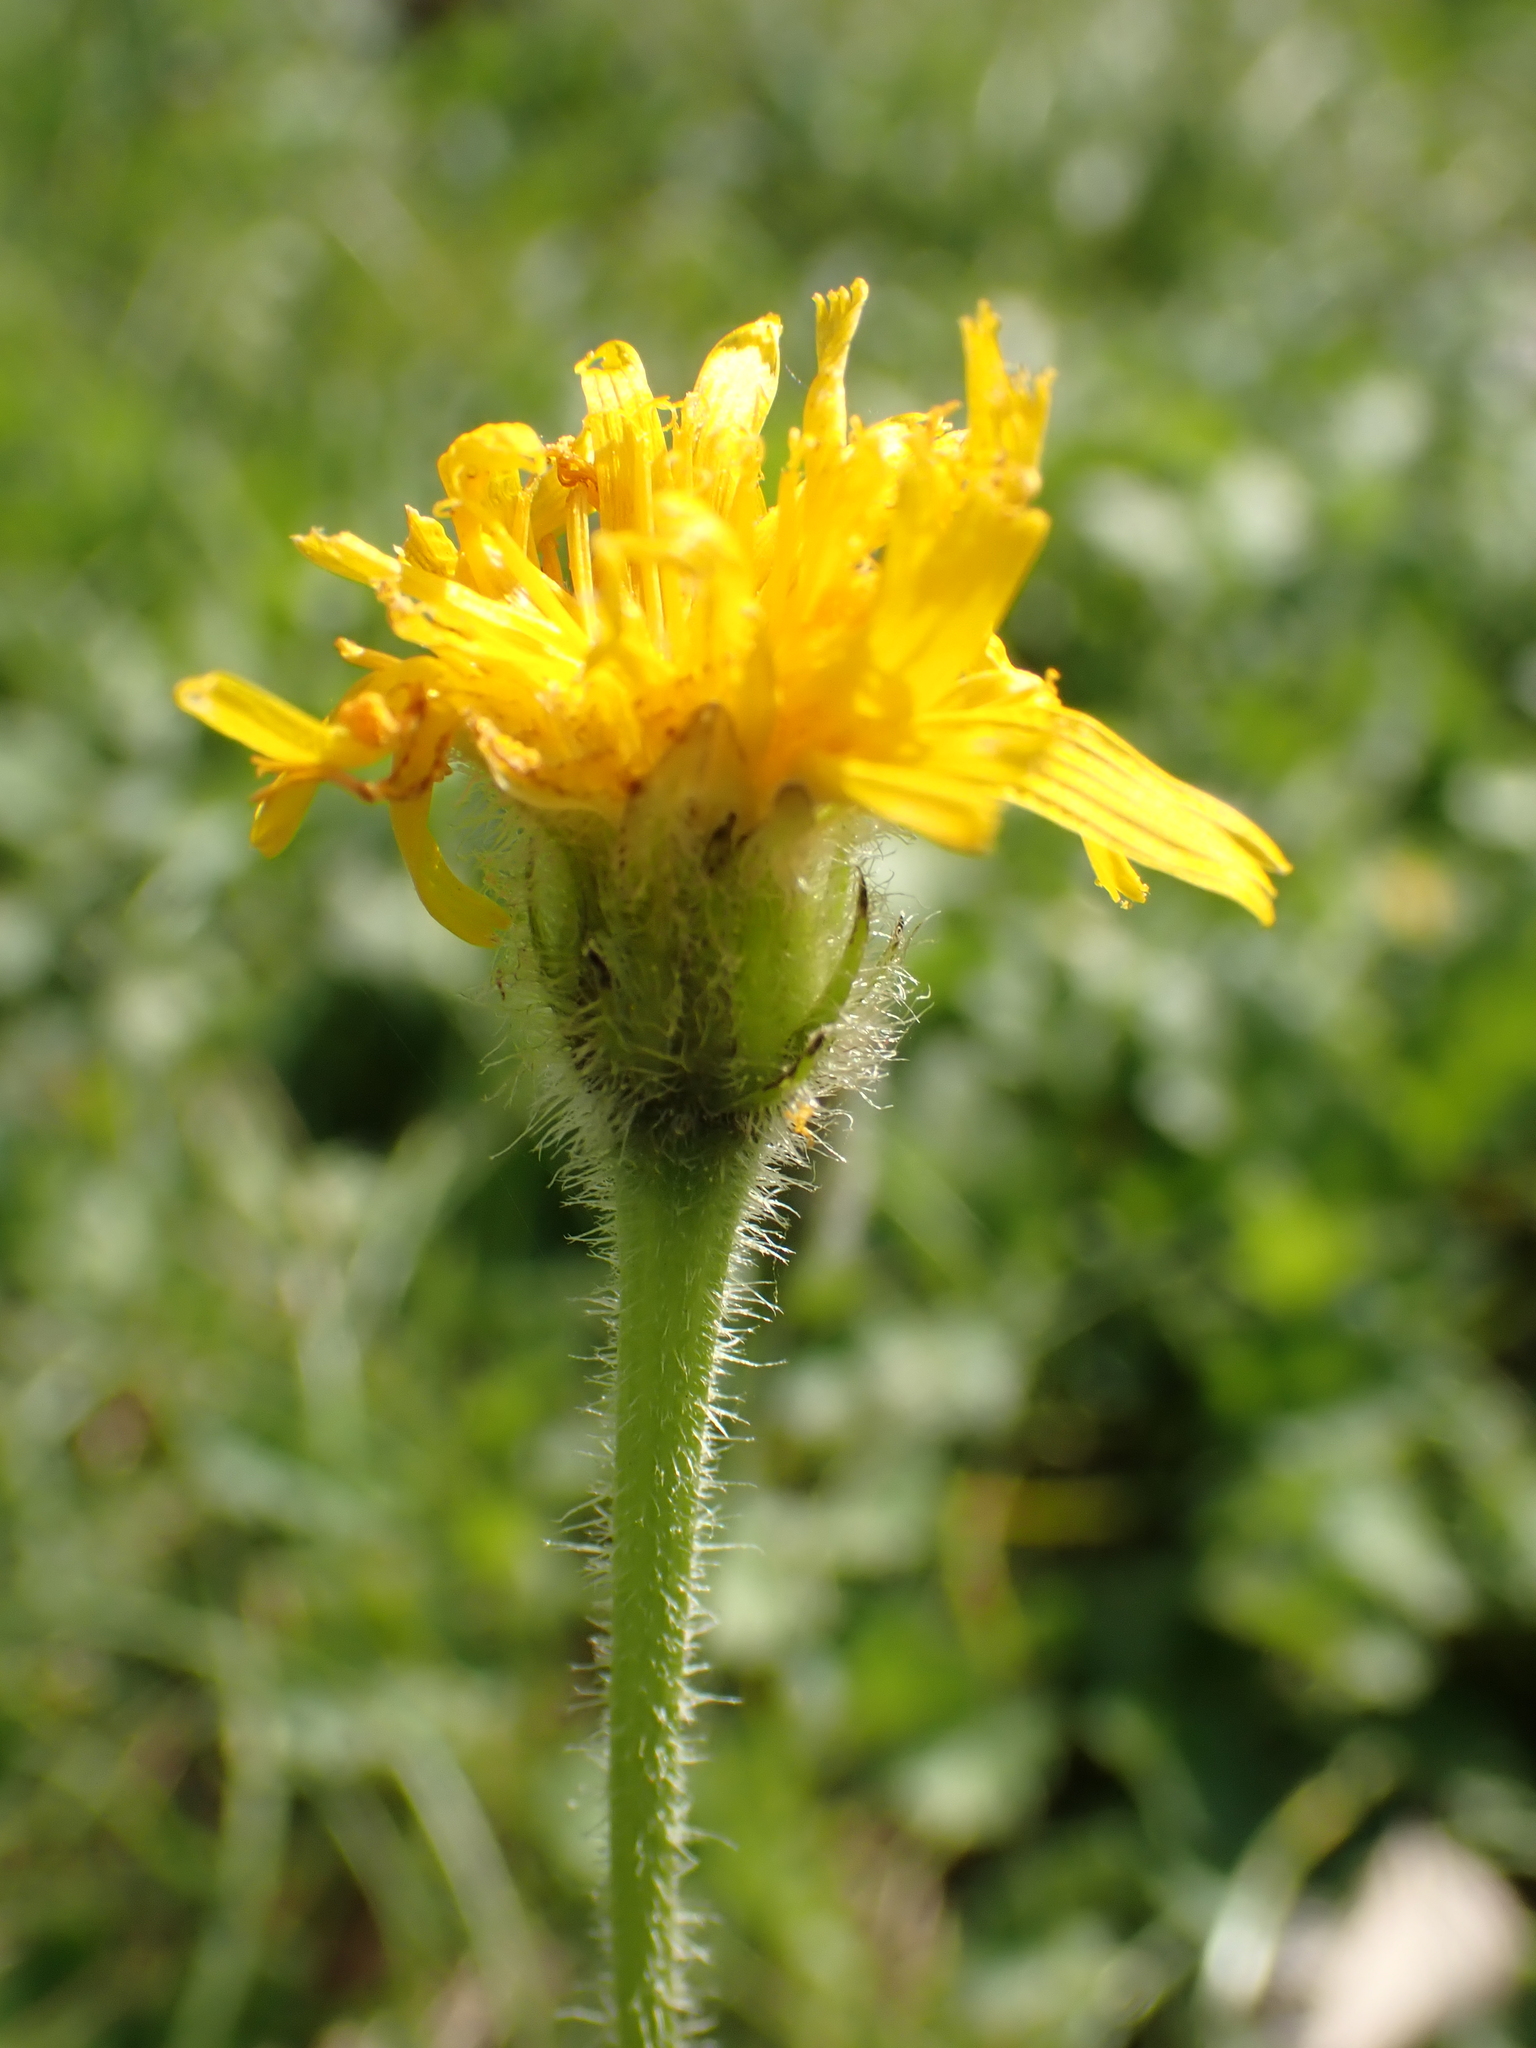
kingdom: Plantae
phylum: Tracheophyta
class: Magnoliopsida
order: Asterales
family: Asteraceae
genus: Leontodon
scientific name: Leontodon hispidus
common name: Rough hawkbit
